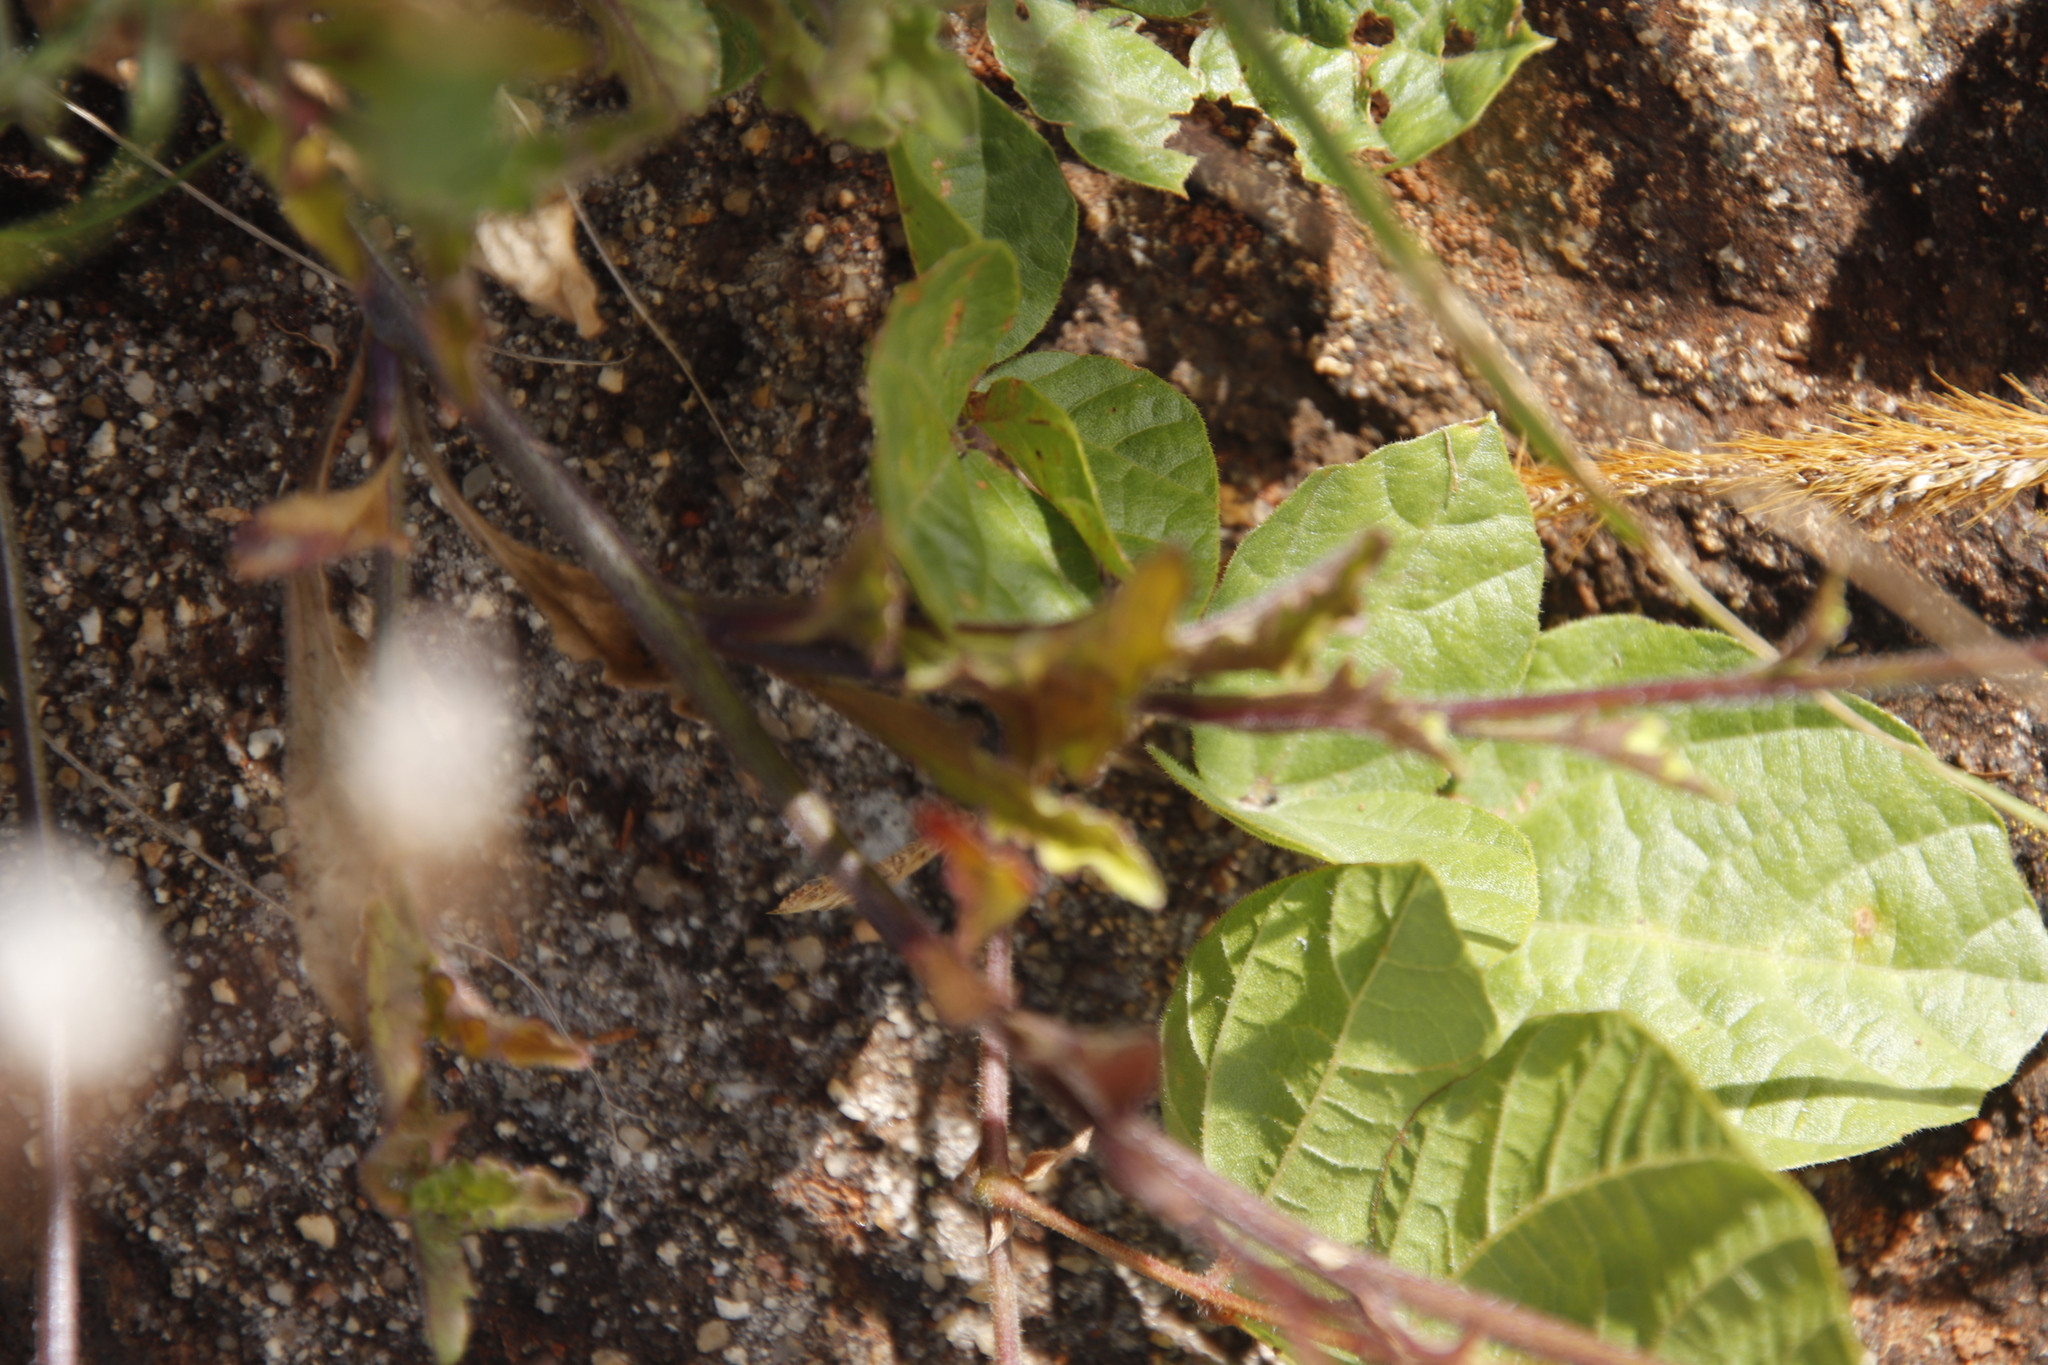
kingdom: Plantae
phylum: Tracheophyta
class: Magnoliopsida
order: Asterales
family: Campanulaceae
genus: Lobelia
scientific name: Lobelia goetzei
